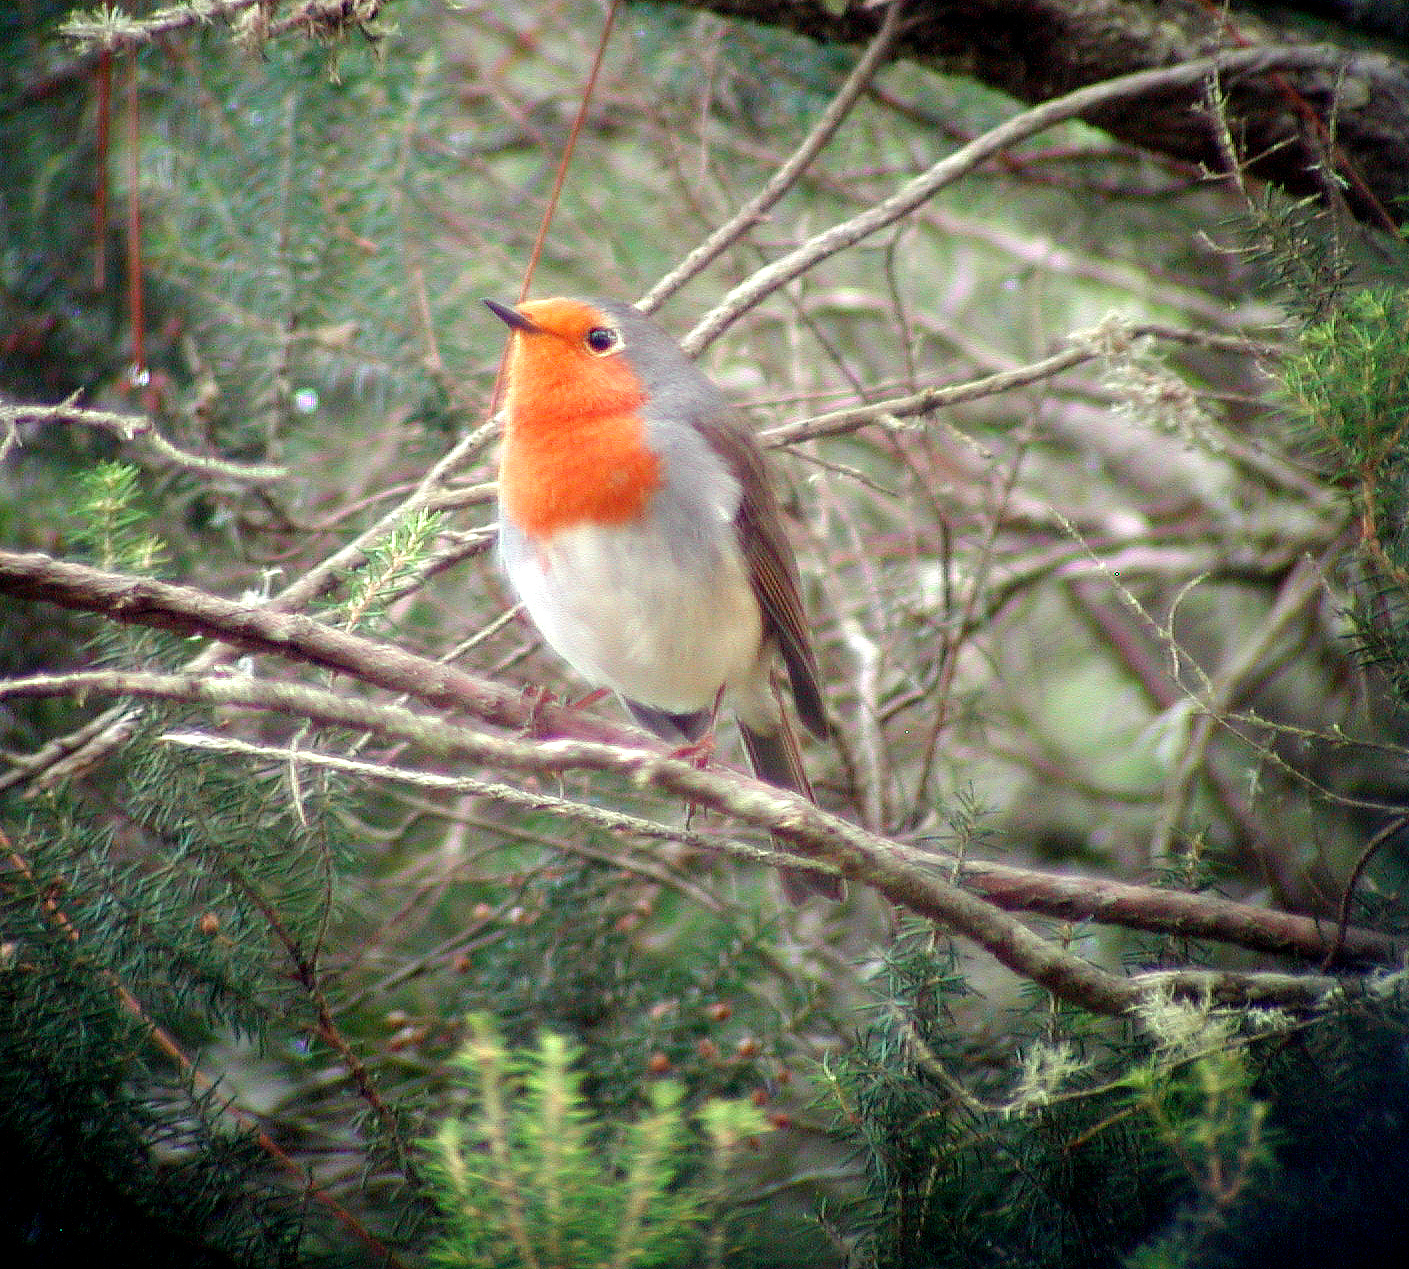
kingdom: Animalia
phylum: Chordata
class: Aves
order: Passeriformes
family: Muscicapidae
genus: Erithacus
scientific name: Erithacus rubecula
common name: European robin
